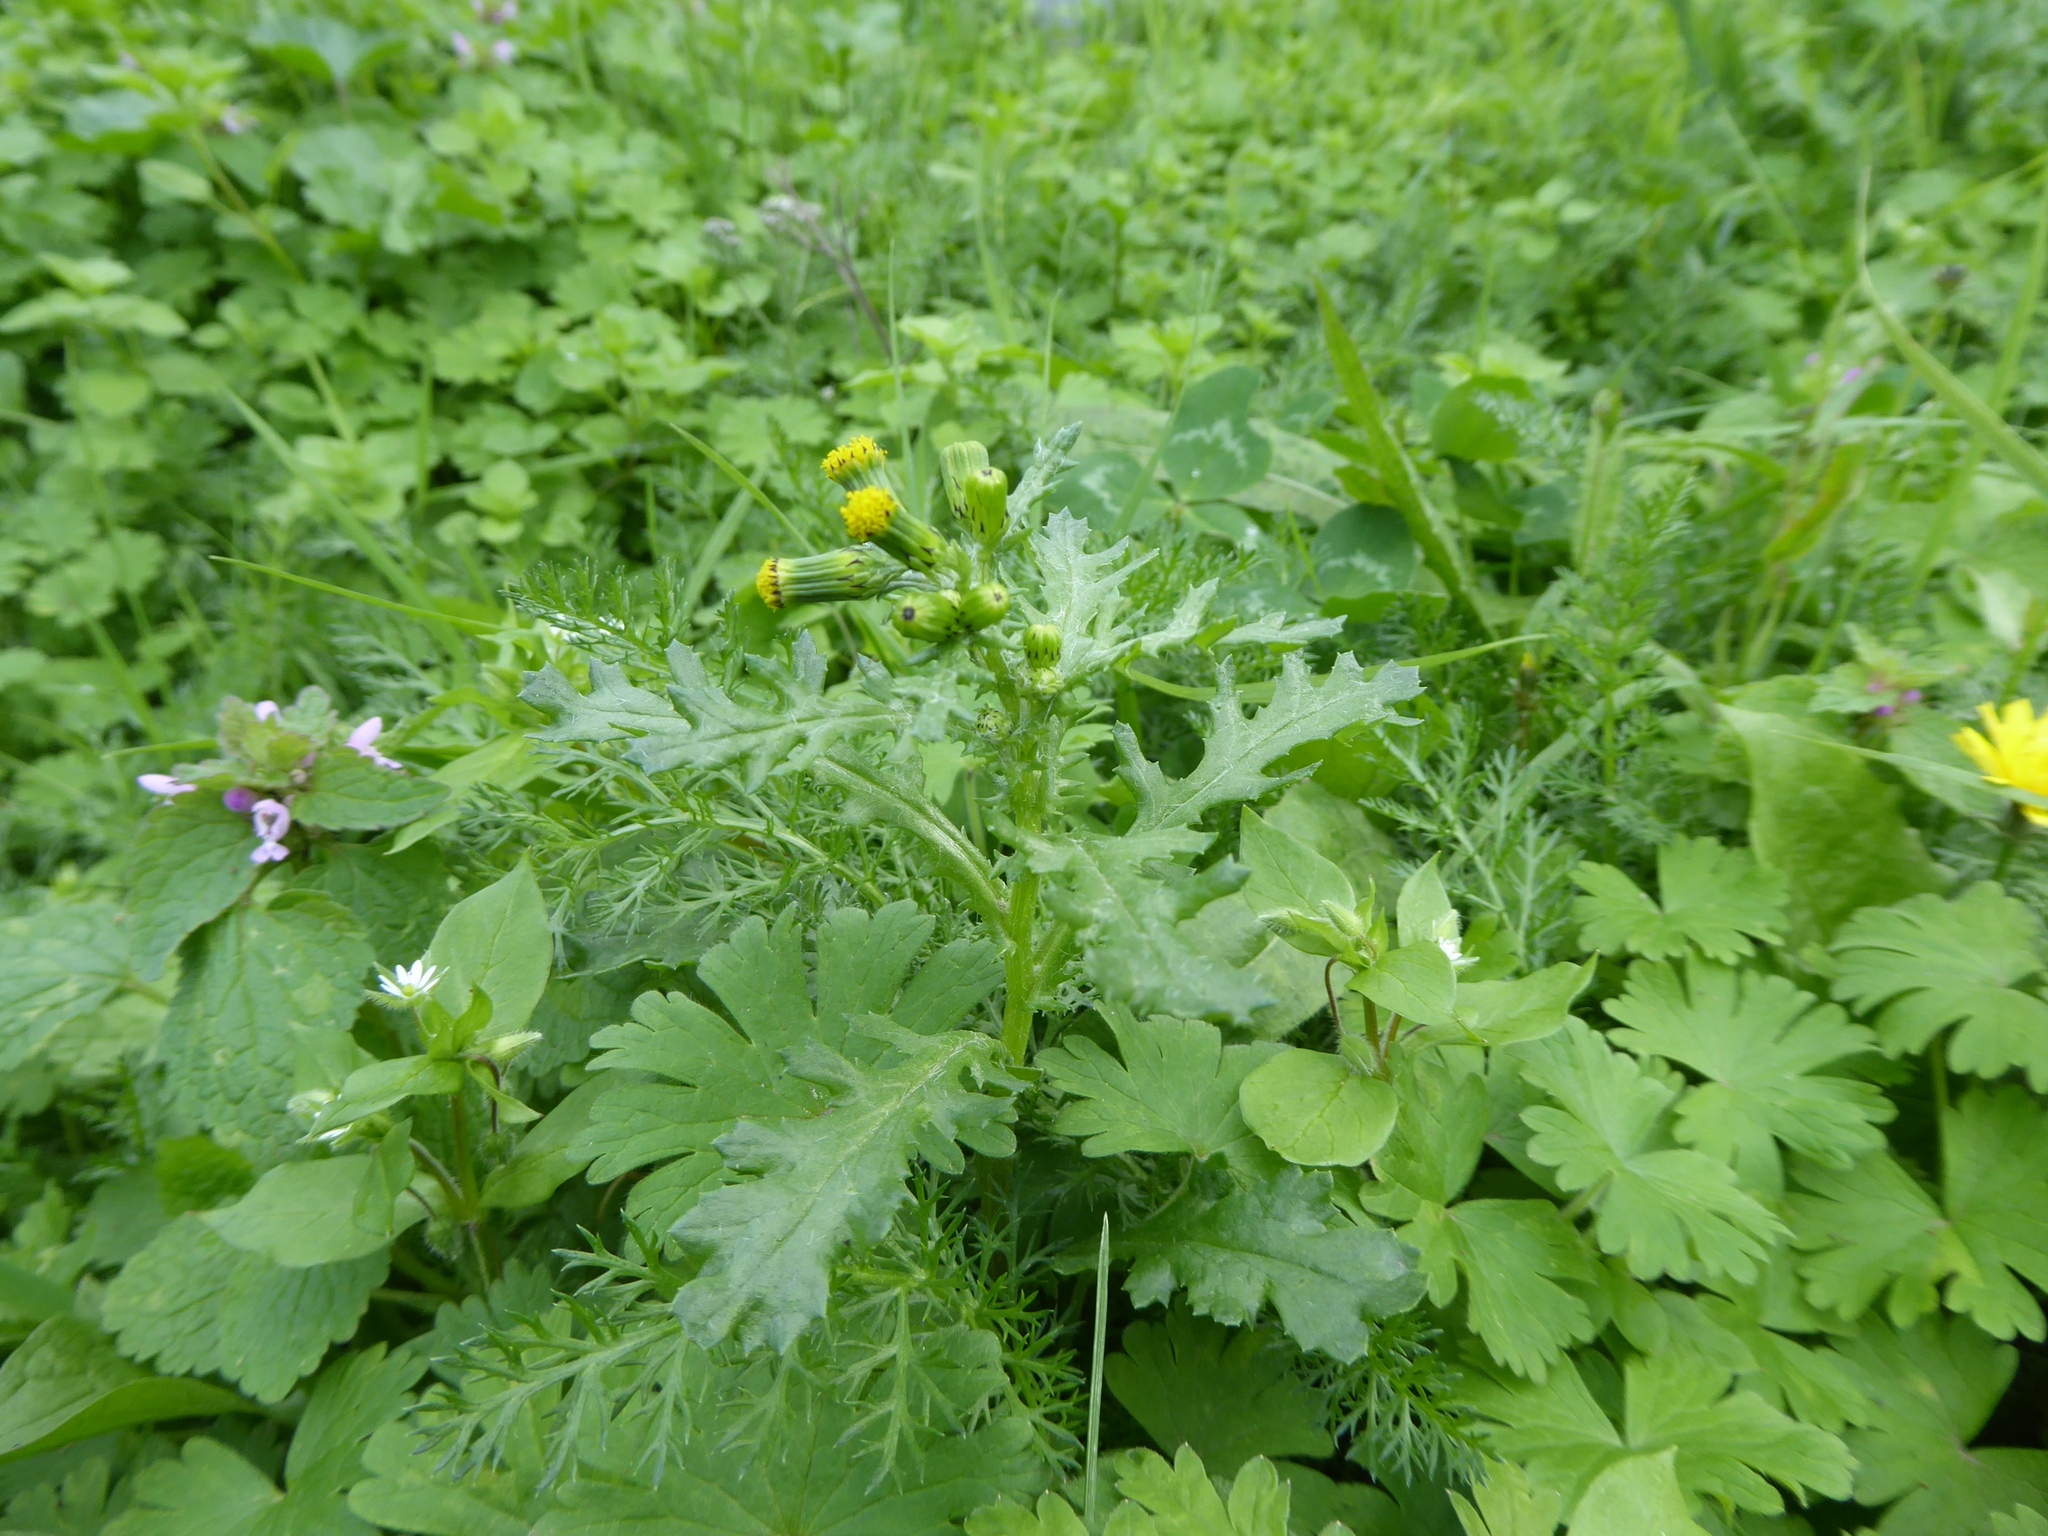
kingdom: Plantae
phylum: Tracheophyta
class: Magnoliopsida
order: Asterales
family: Asteraceae
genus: Senecio
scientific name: Senecio vulgaris
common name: Old-man-in-the-spring
